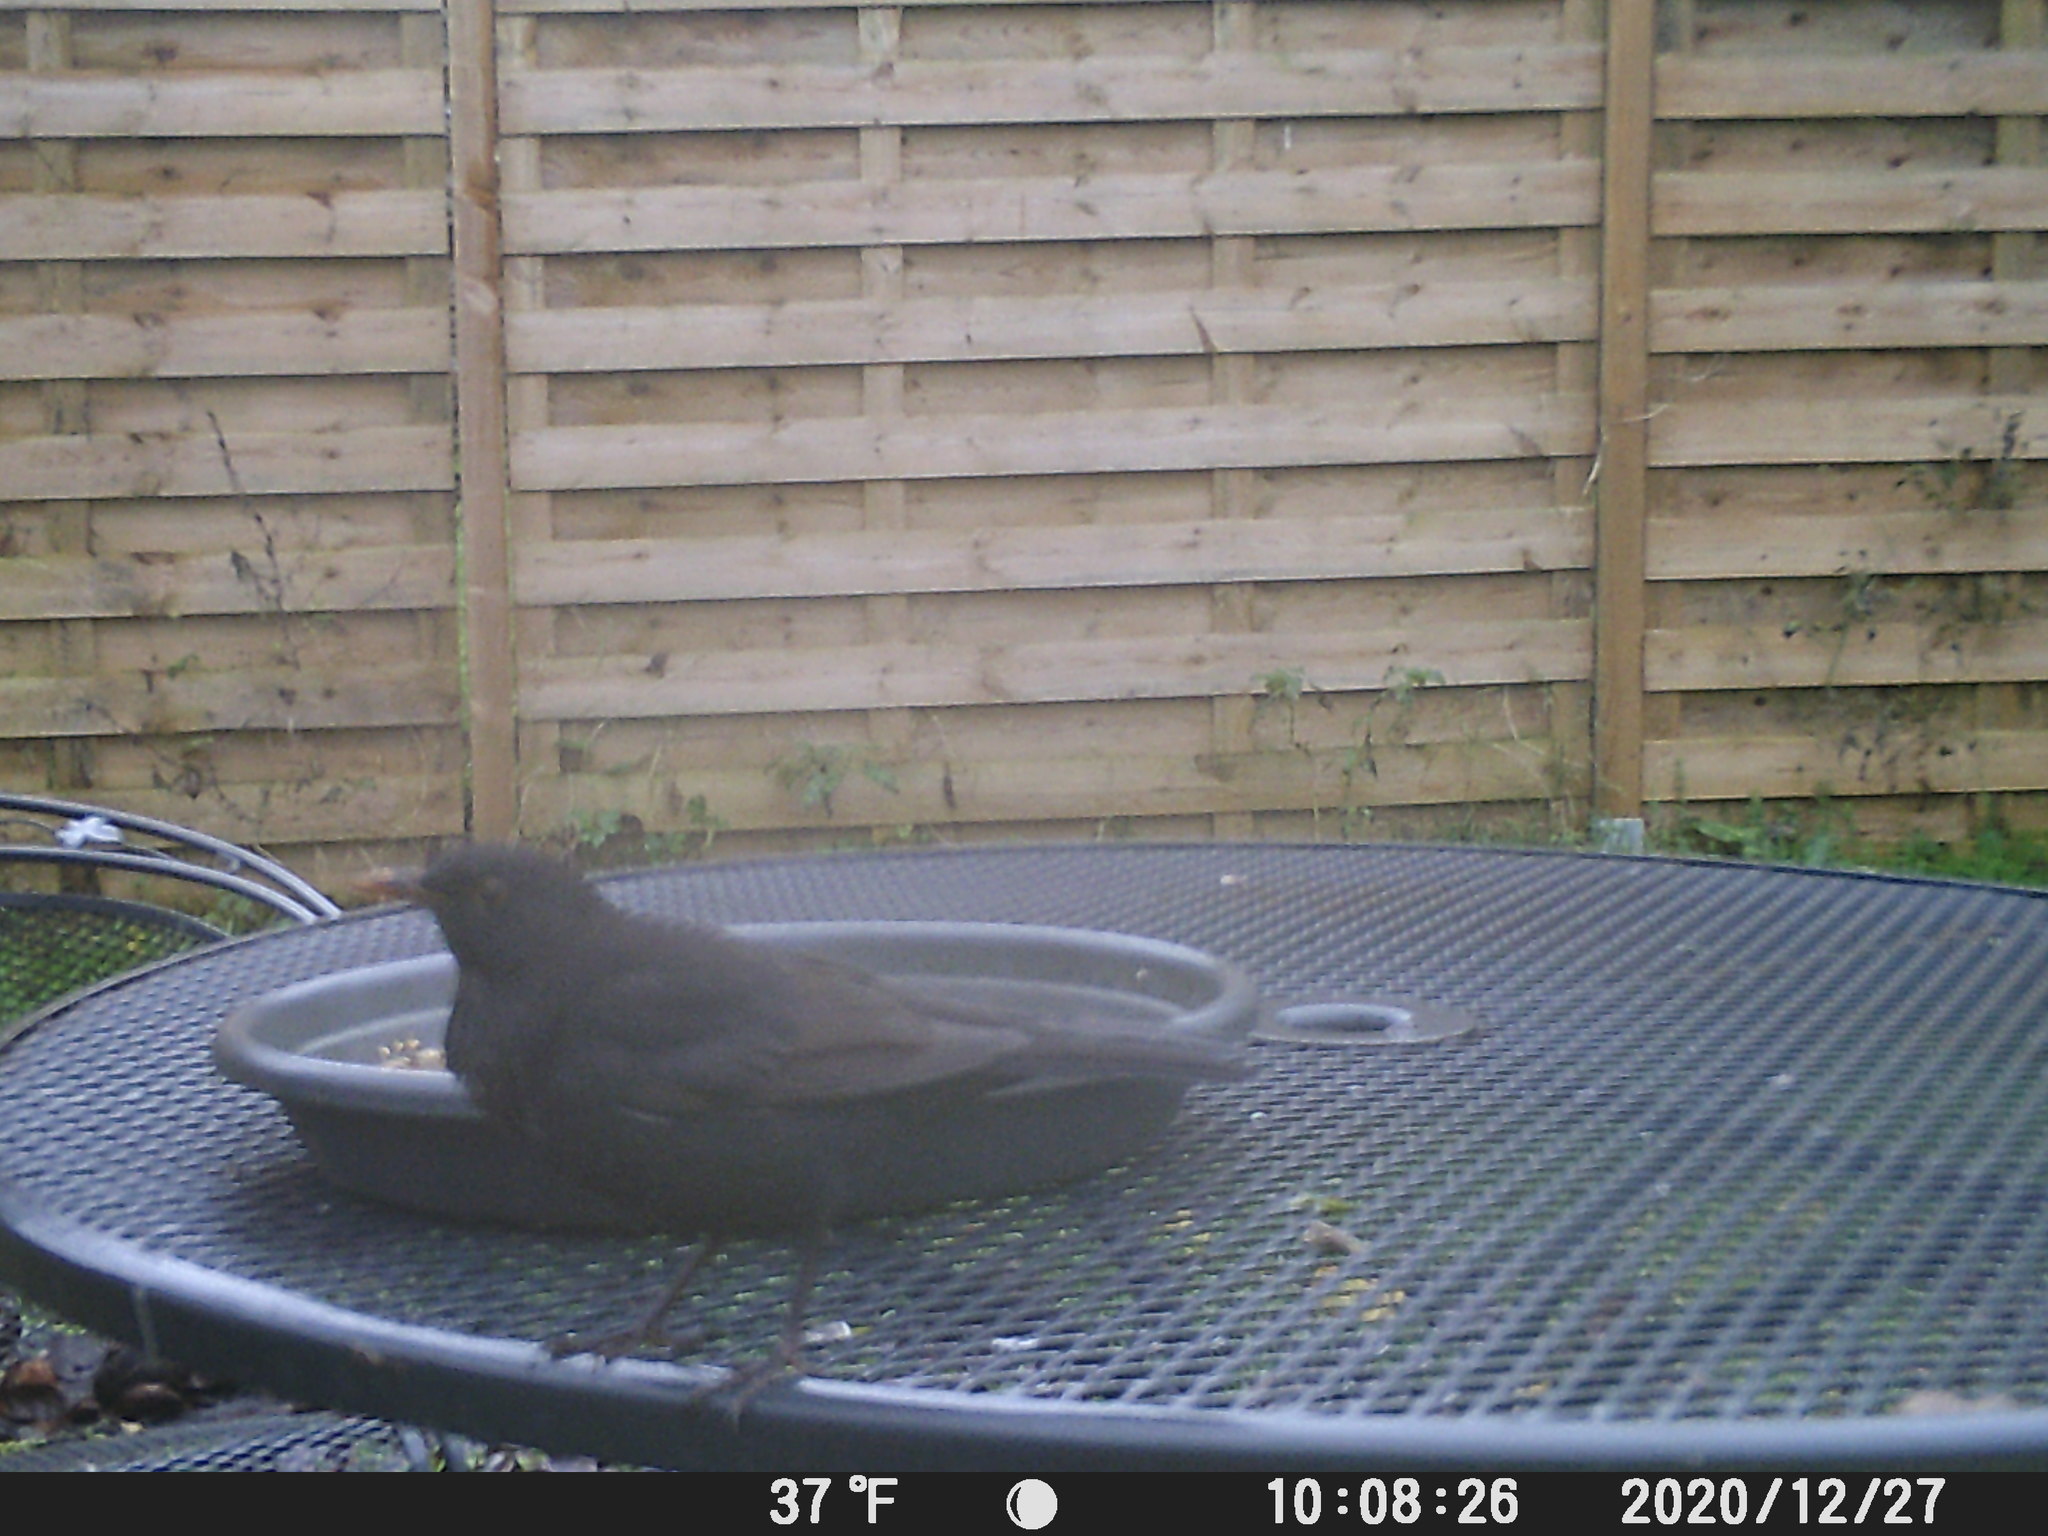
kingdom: Animalia
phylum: Chordata
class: Aves
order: Passeriformes
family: Turdidae
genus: Turdus
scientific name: Turdus merula
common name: Common blackbird
